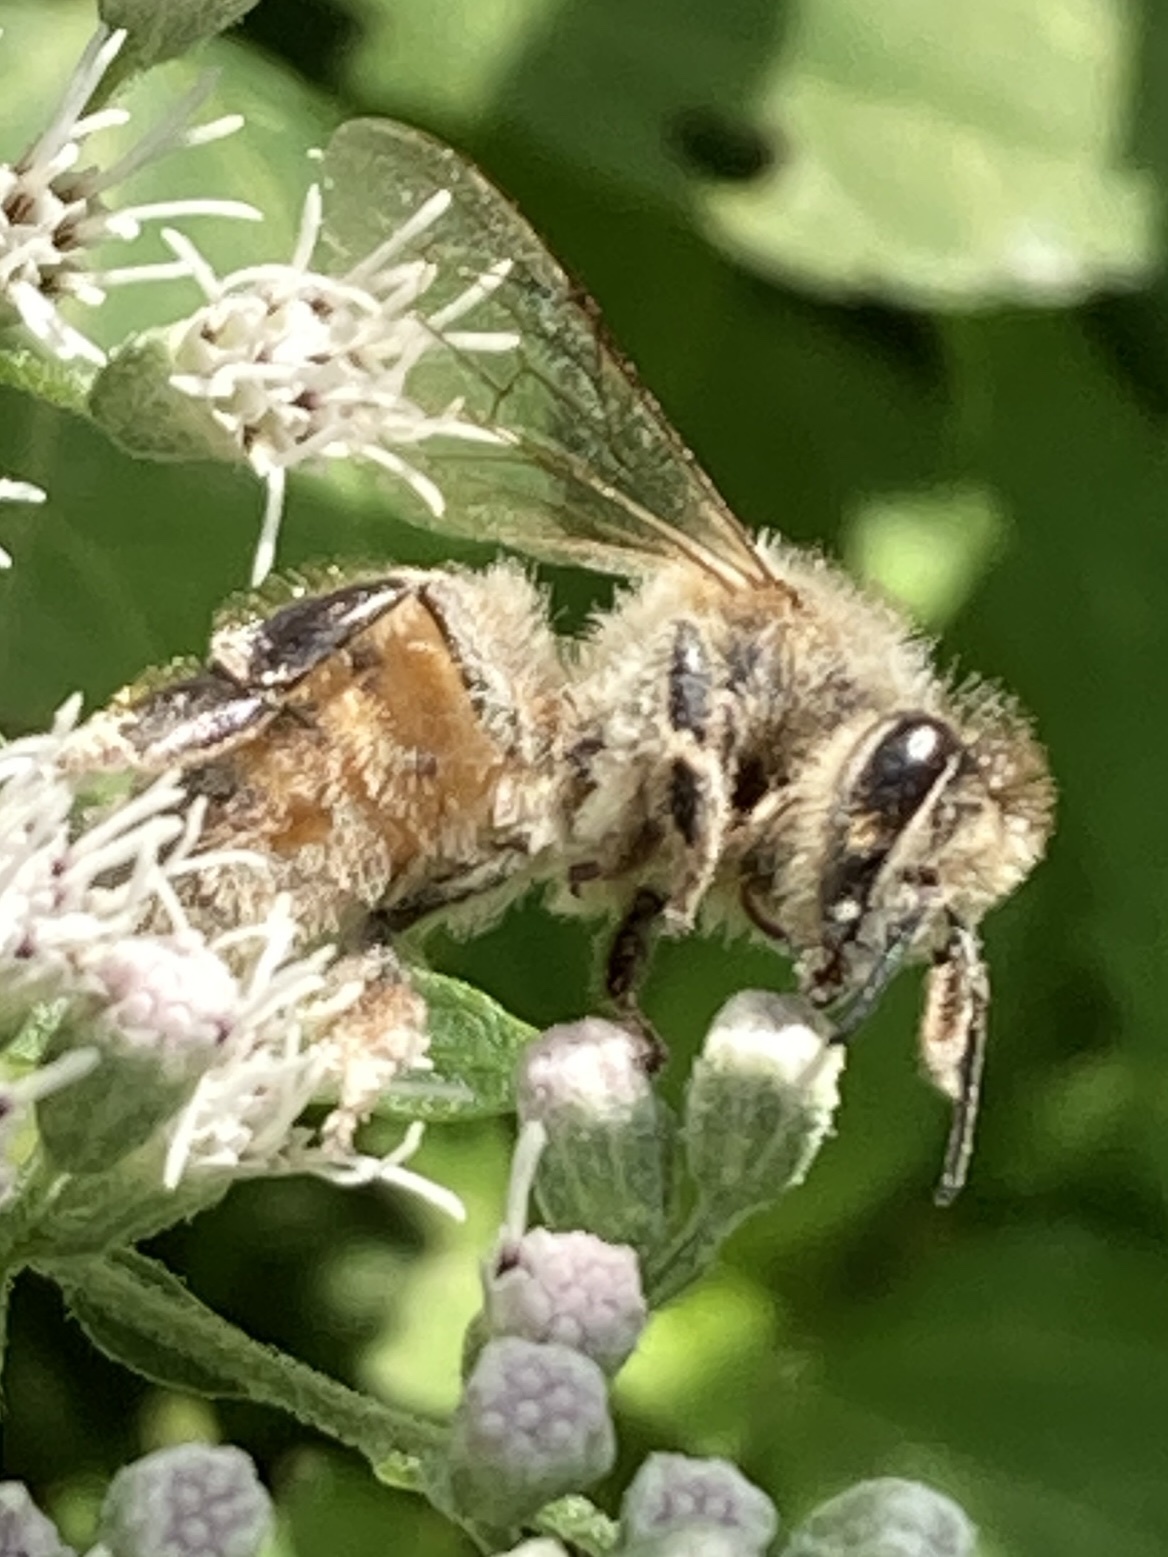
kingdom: Animalia
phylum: Arthropoda
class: Insecta
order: Hymenoptera
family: Apidae
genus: Apis
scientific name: Apis mellifera
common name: Honey bee
